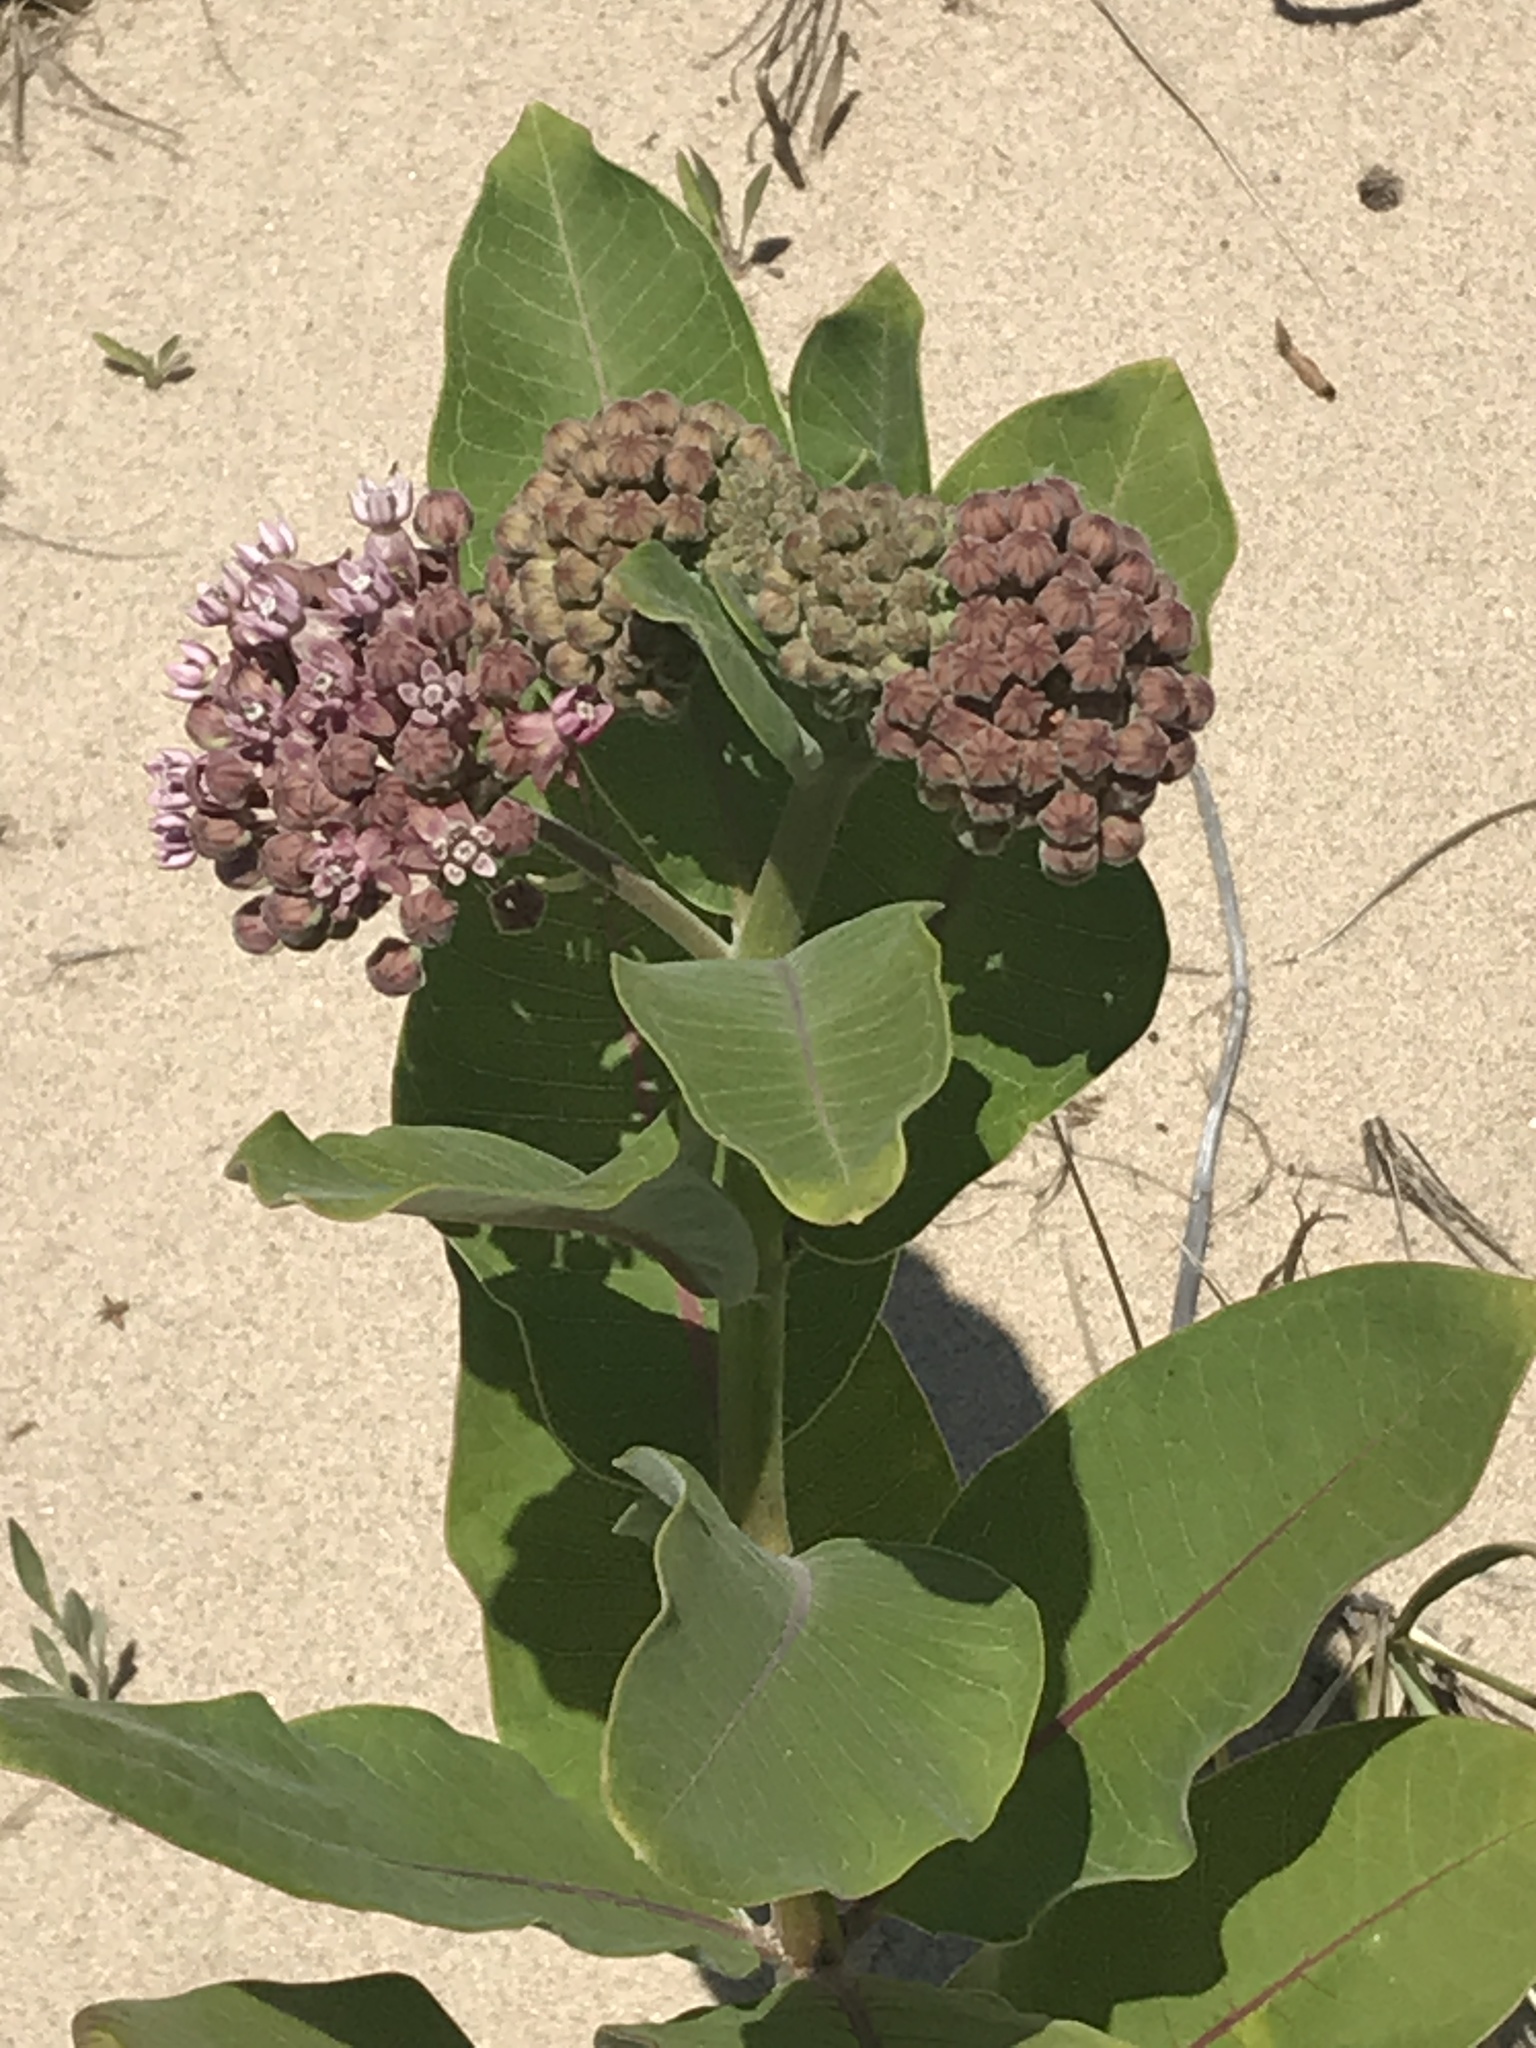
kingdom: Plantae
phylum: Tracheophyta
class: Magnoliopsida
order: Gentianales
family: Apocynaceae
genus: Asclepias
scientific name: Asclepias syriaca
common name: Common milkweed
